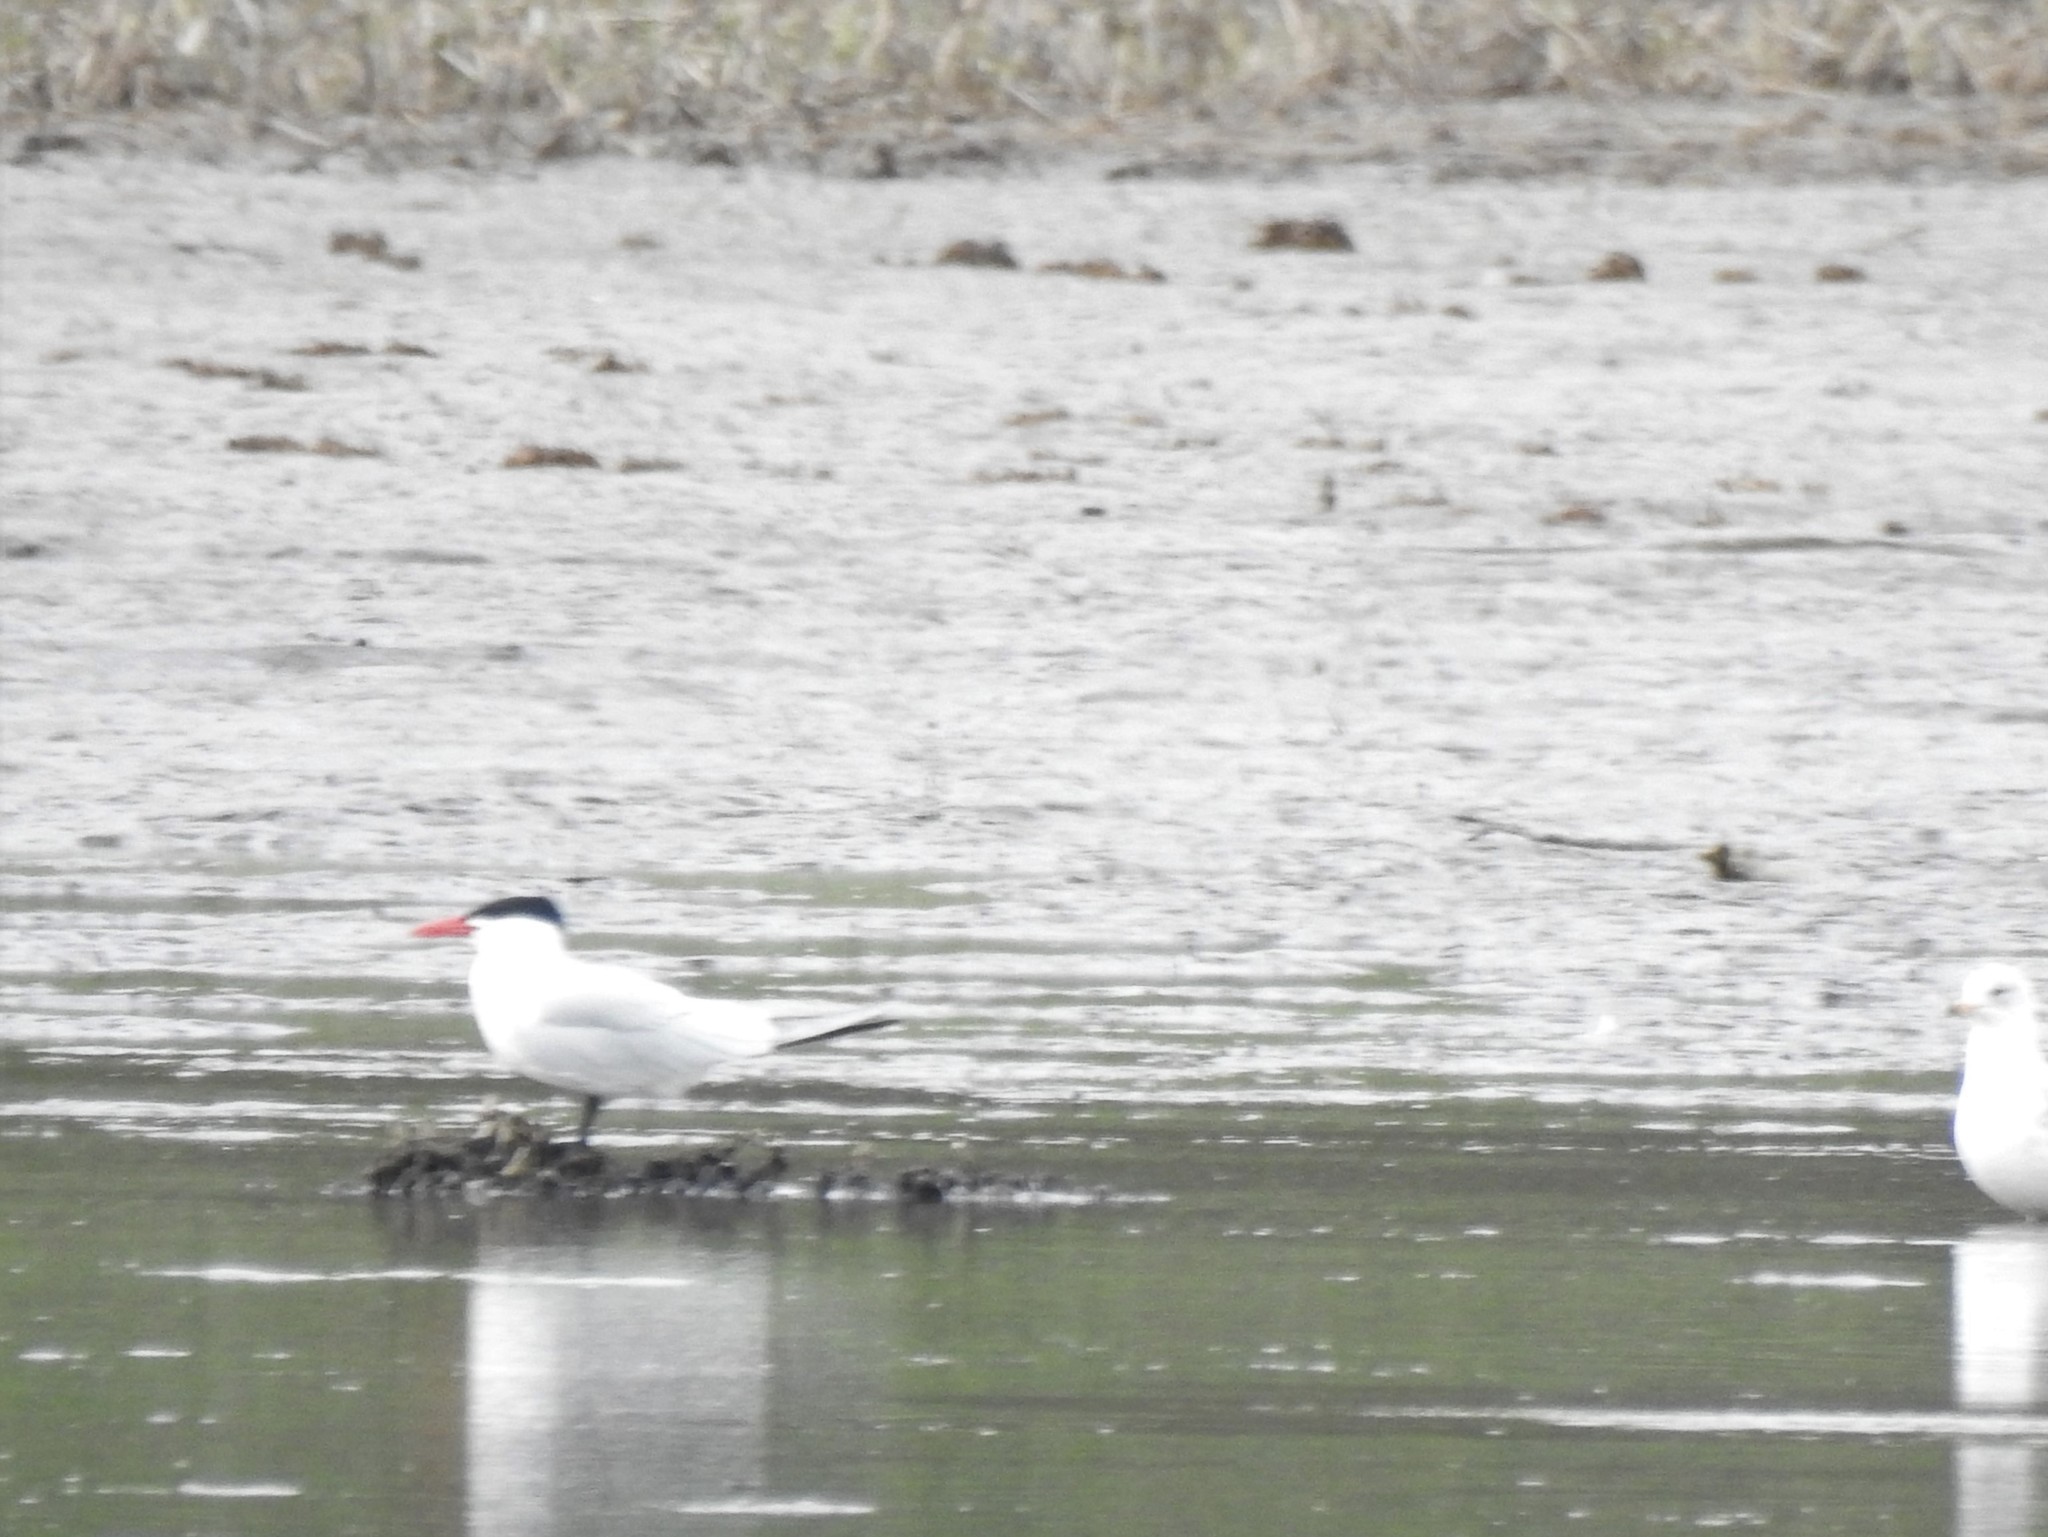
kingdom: Animalia
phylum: Chordata
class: Aves
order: Charadriiformes
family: Laridae
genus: Hydroprogne
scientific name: Hydroprogne caspia
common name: Caspian tern
